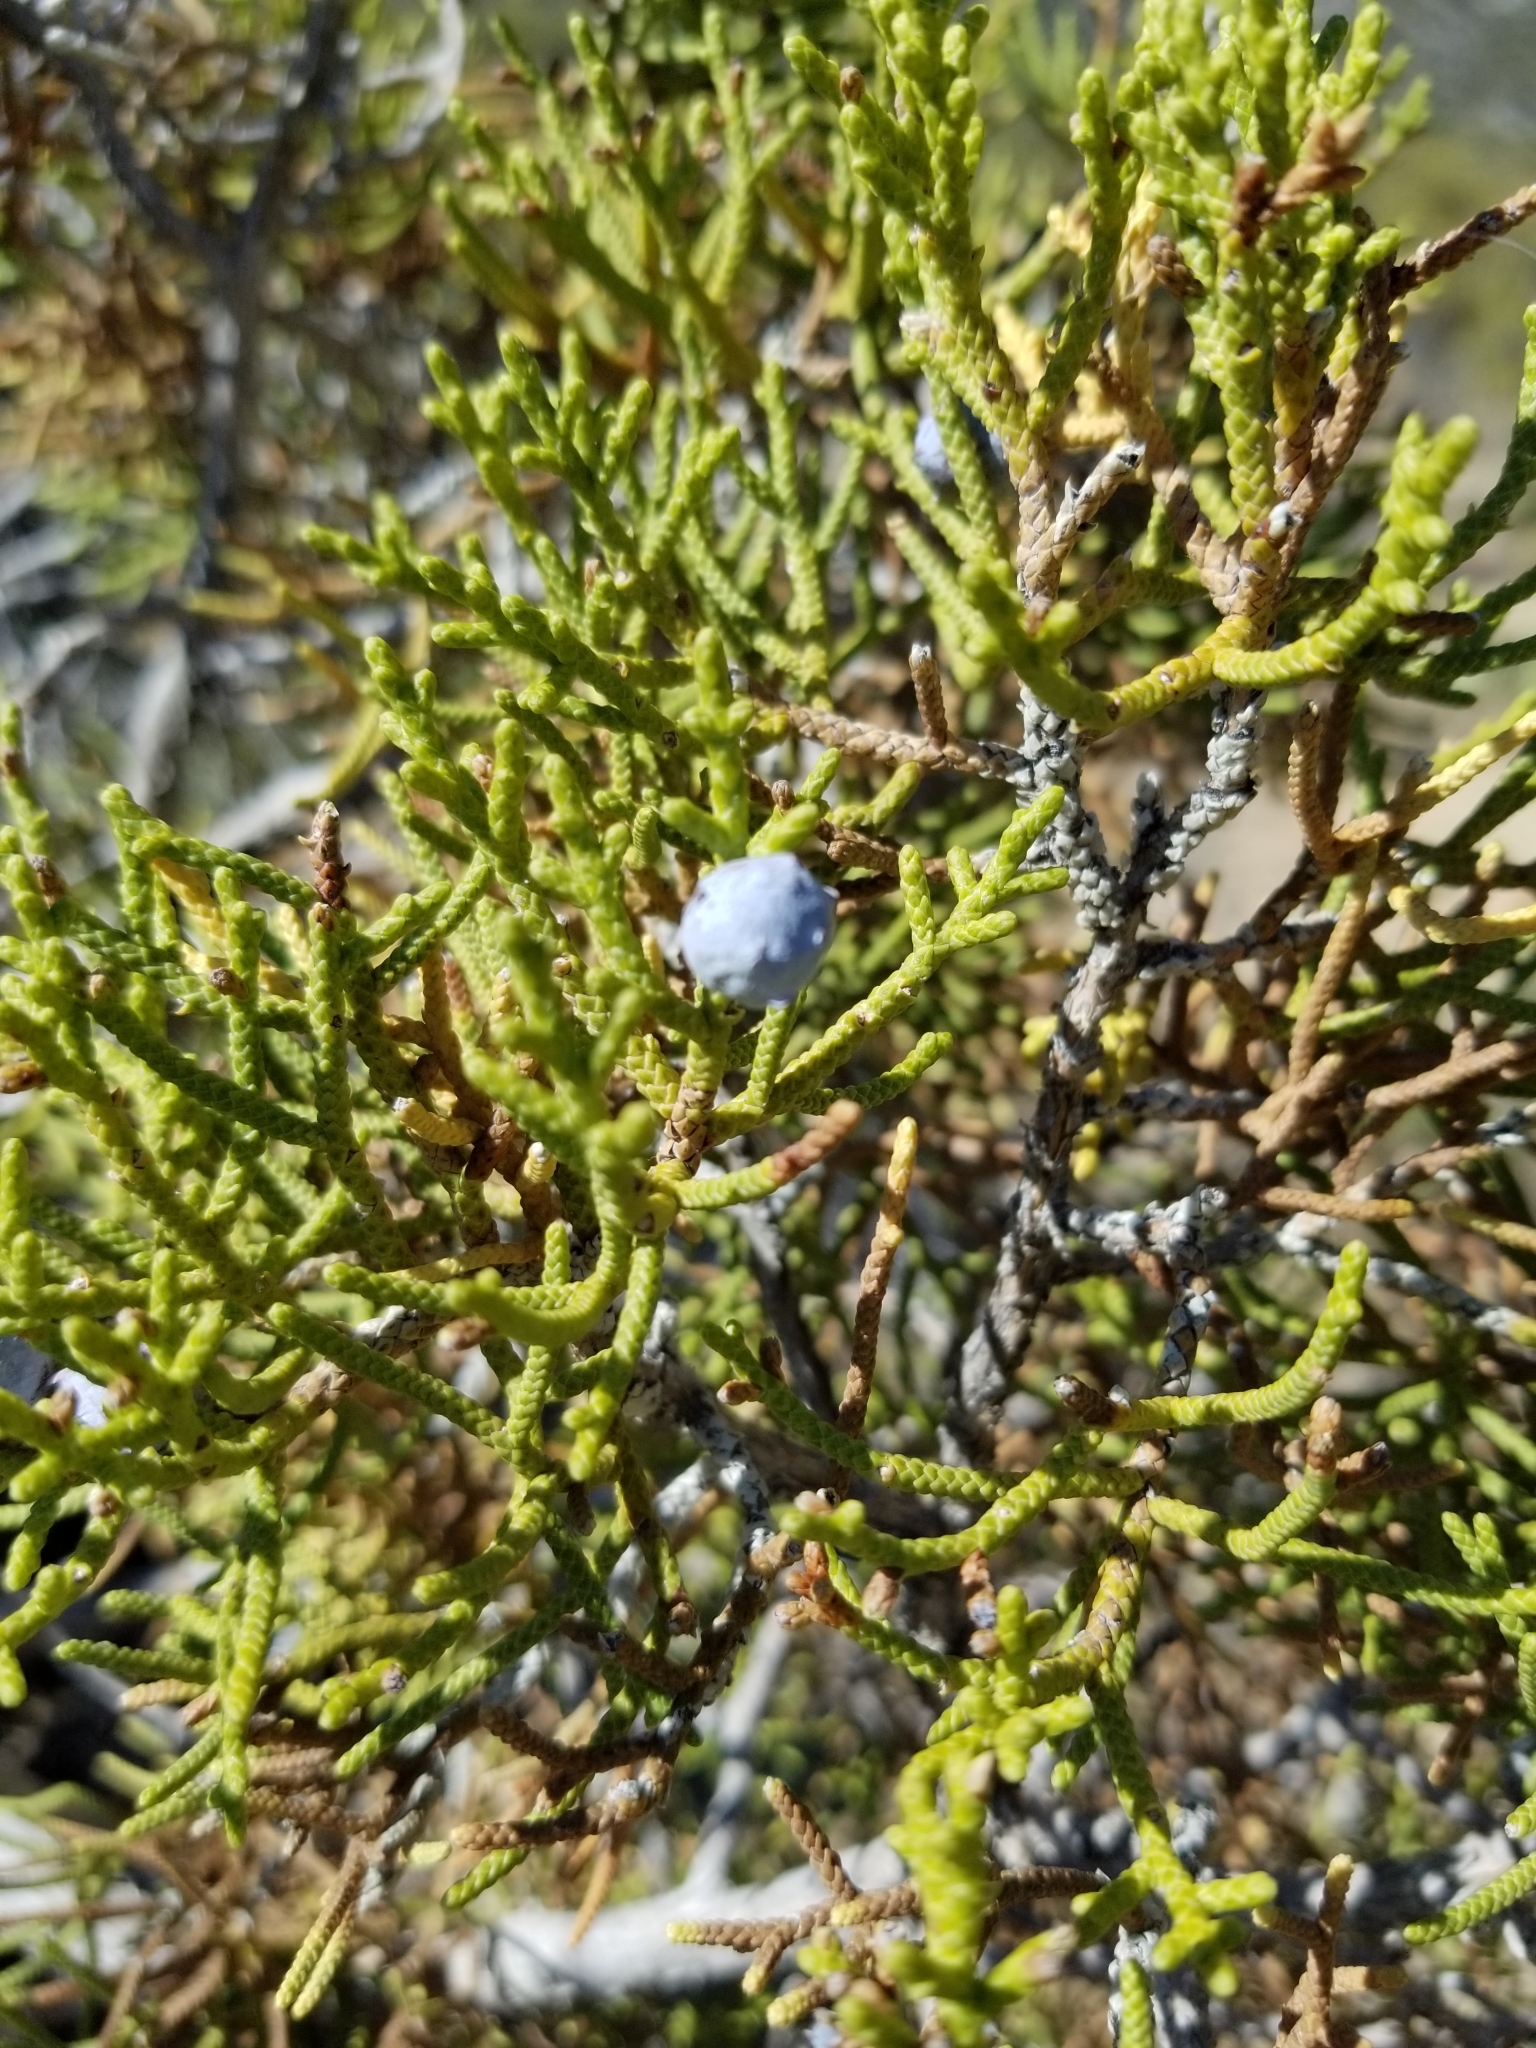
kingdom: Plantae
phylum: Tracheophyta
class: Pinopsida
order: Pinales
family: Cupressaceae
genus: Juniperus
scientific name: Juniperus californica
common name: California juniper
